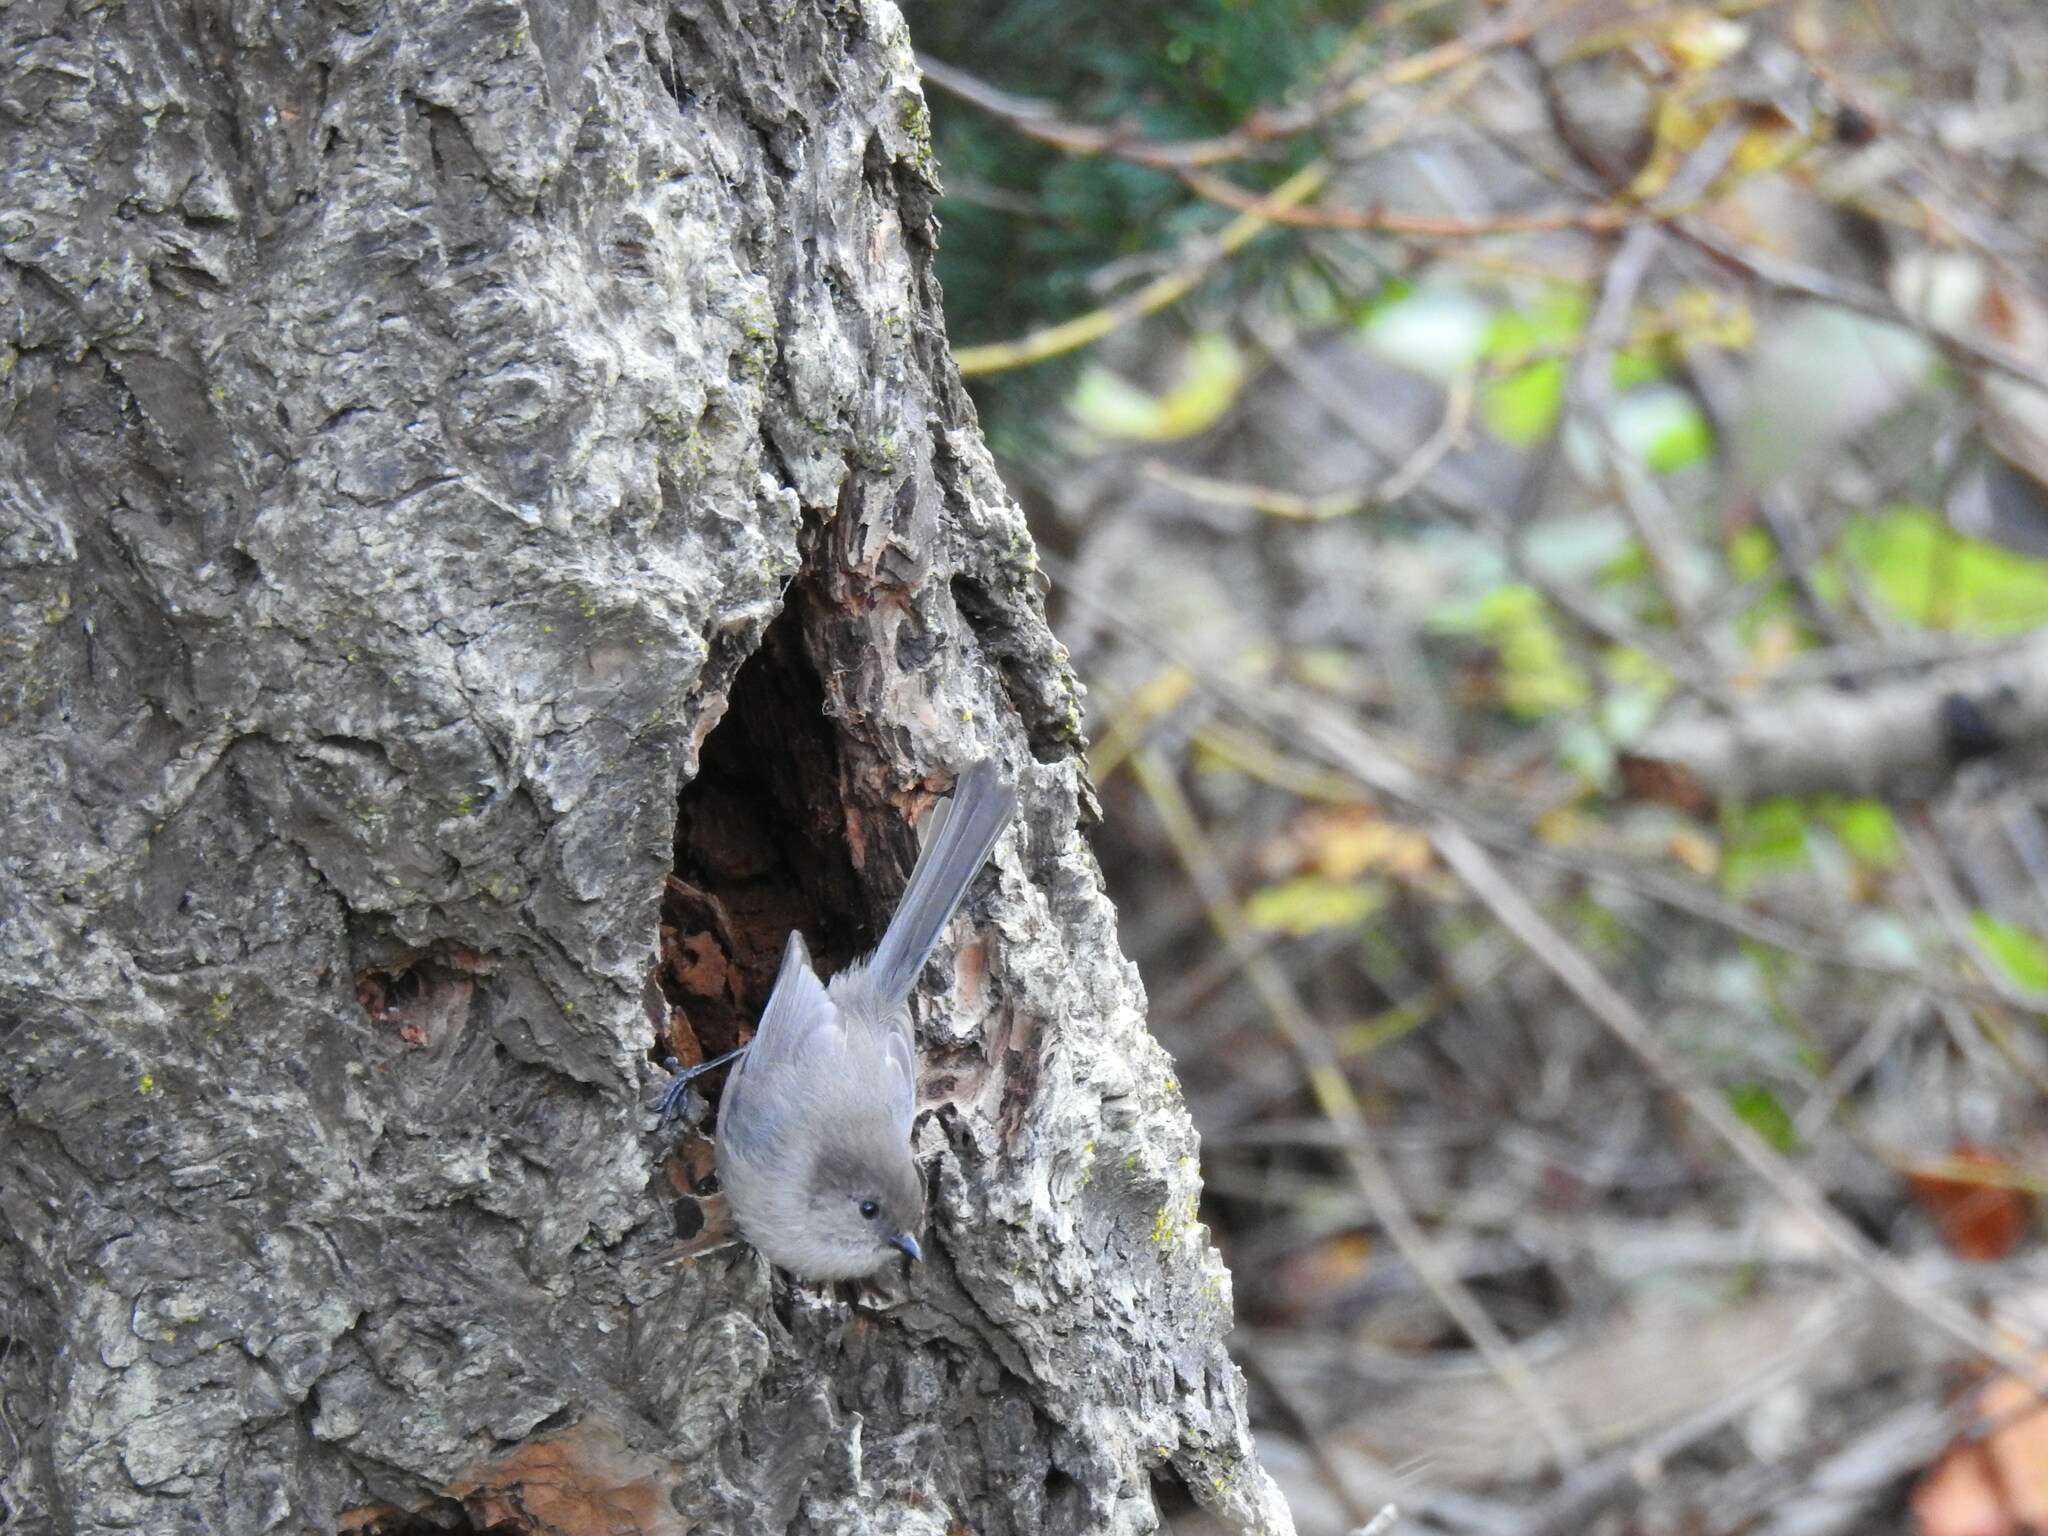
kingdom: Animalia
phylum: Chordata
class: Aves
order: Passeriformes
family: Aegithalidae
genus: Psaltriparus
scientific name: Psaltriparus minimus
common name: American bushtit
